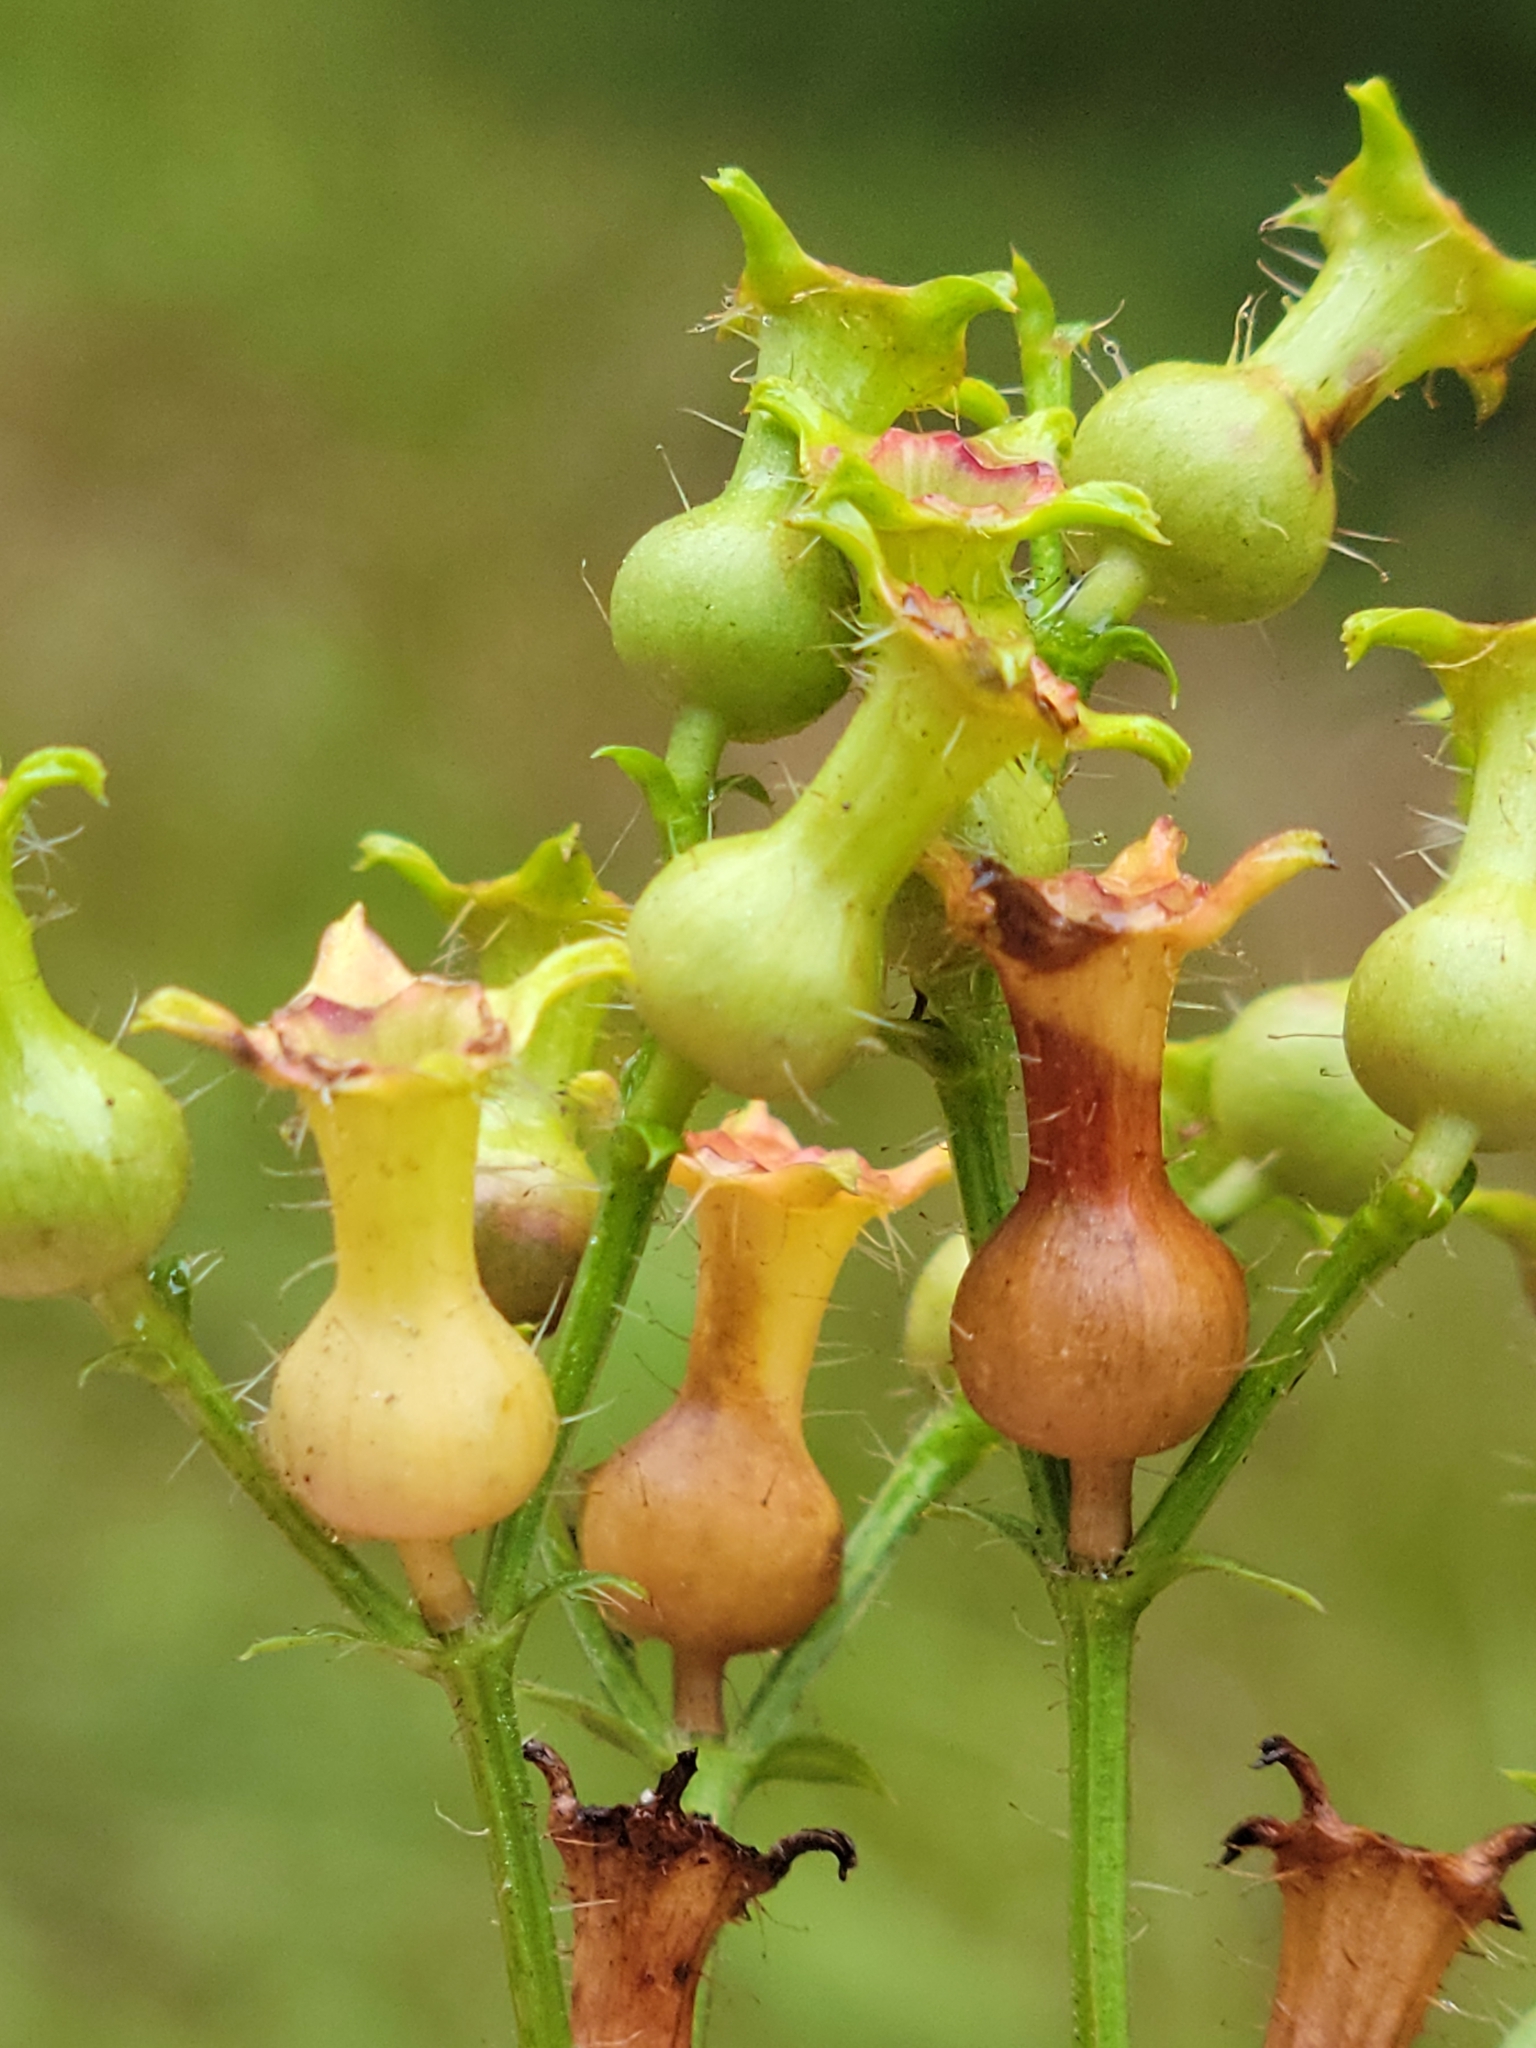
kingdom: Plantae
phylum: Tracheophyta
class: Magnoliopsida
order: Myrtales
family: Melastomataceae
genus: Rhexia
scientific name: Rhexia mariana
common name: Dull meadow-pitcher
